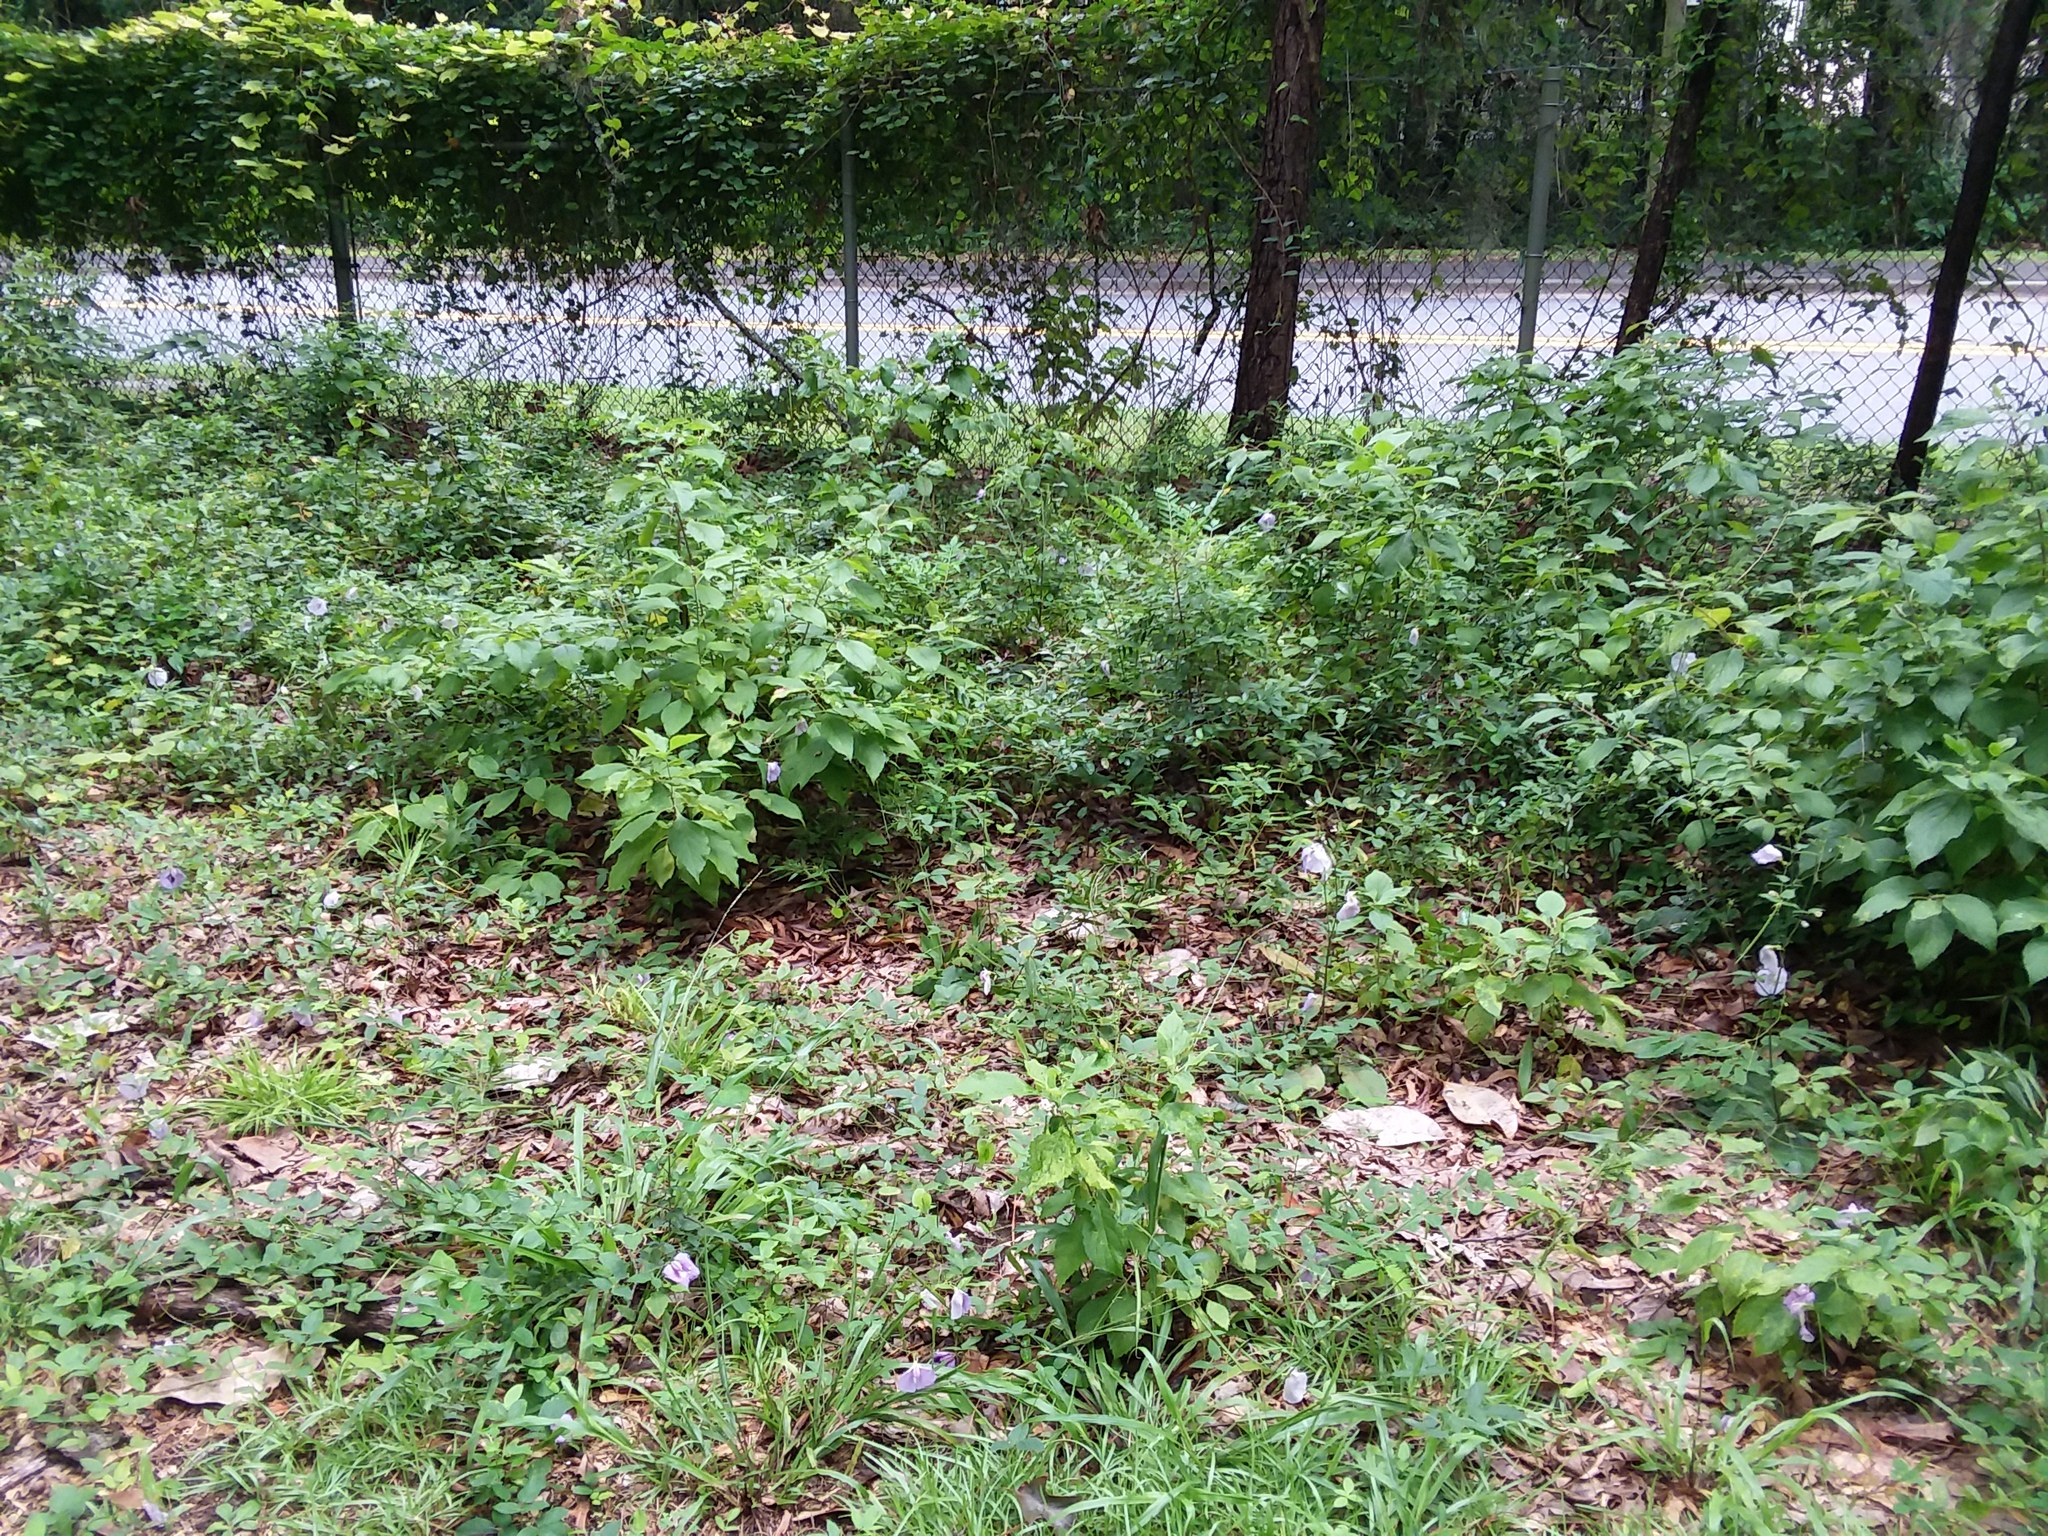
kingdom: Plantae
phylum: Tracheophyta
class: Magnoliopsida
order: Fabales
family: Fabaceae
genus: Centrosema
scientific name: Centrosema virginianum
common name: Butterfly-pea
